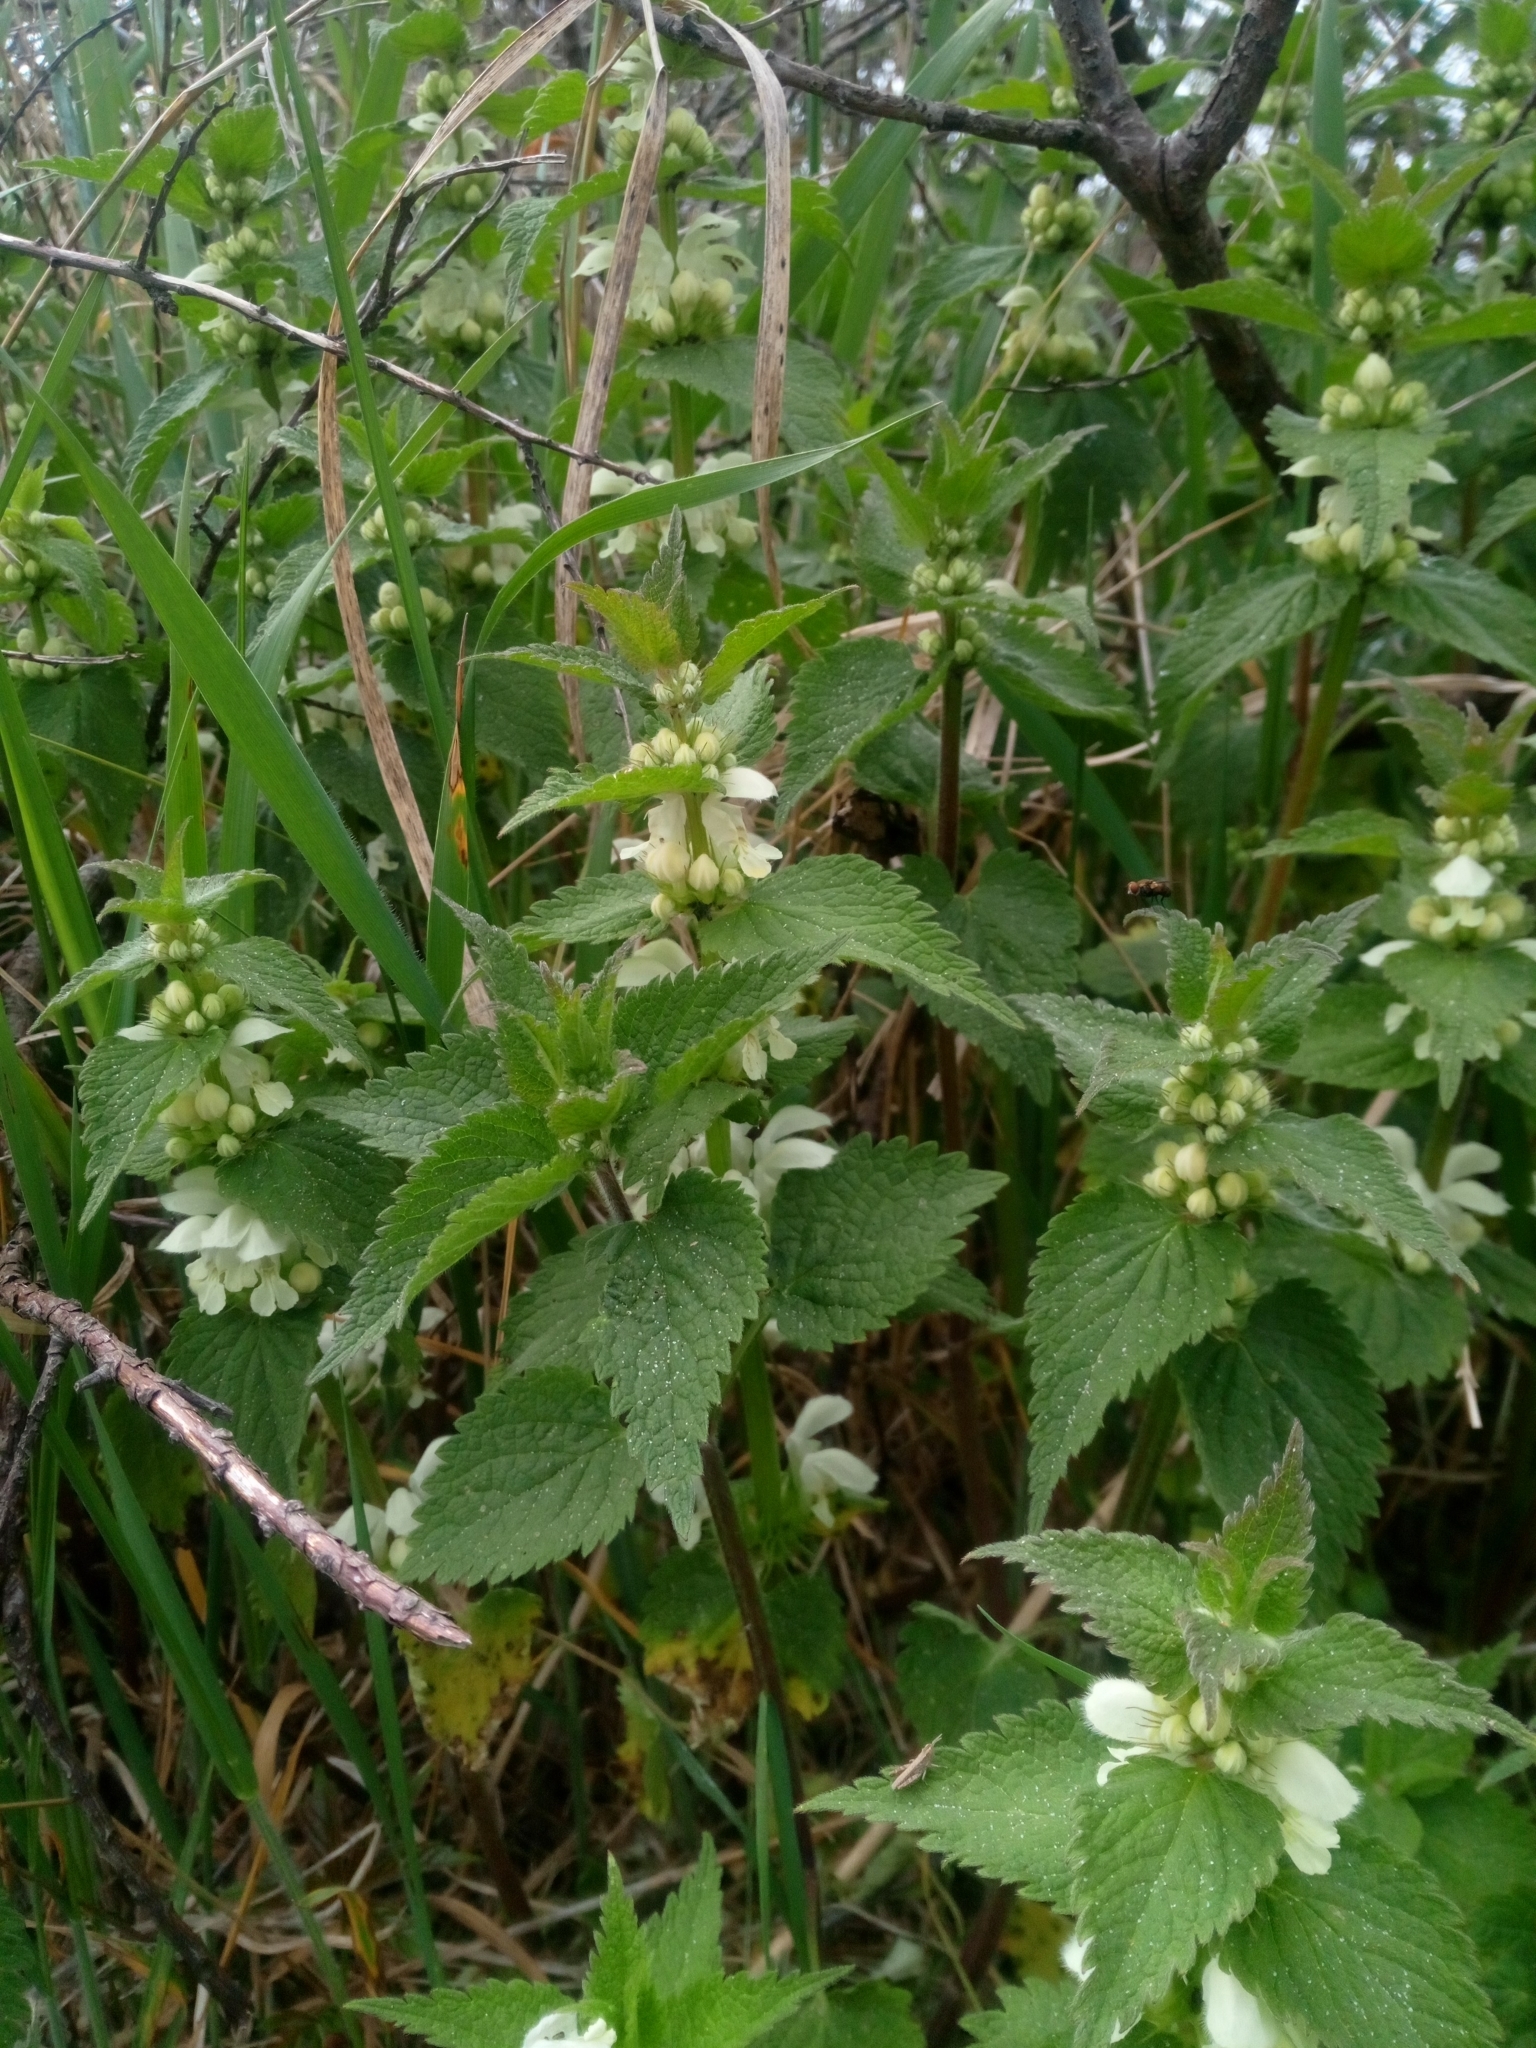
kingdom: Plantae
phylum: Tracheophyta
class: Magnoliopsida
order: Lamiales
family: Lamiaceae
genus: Lamium
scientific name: Lamium album
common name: White dead-nettle
